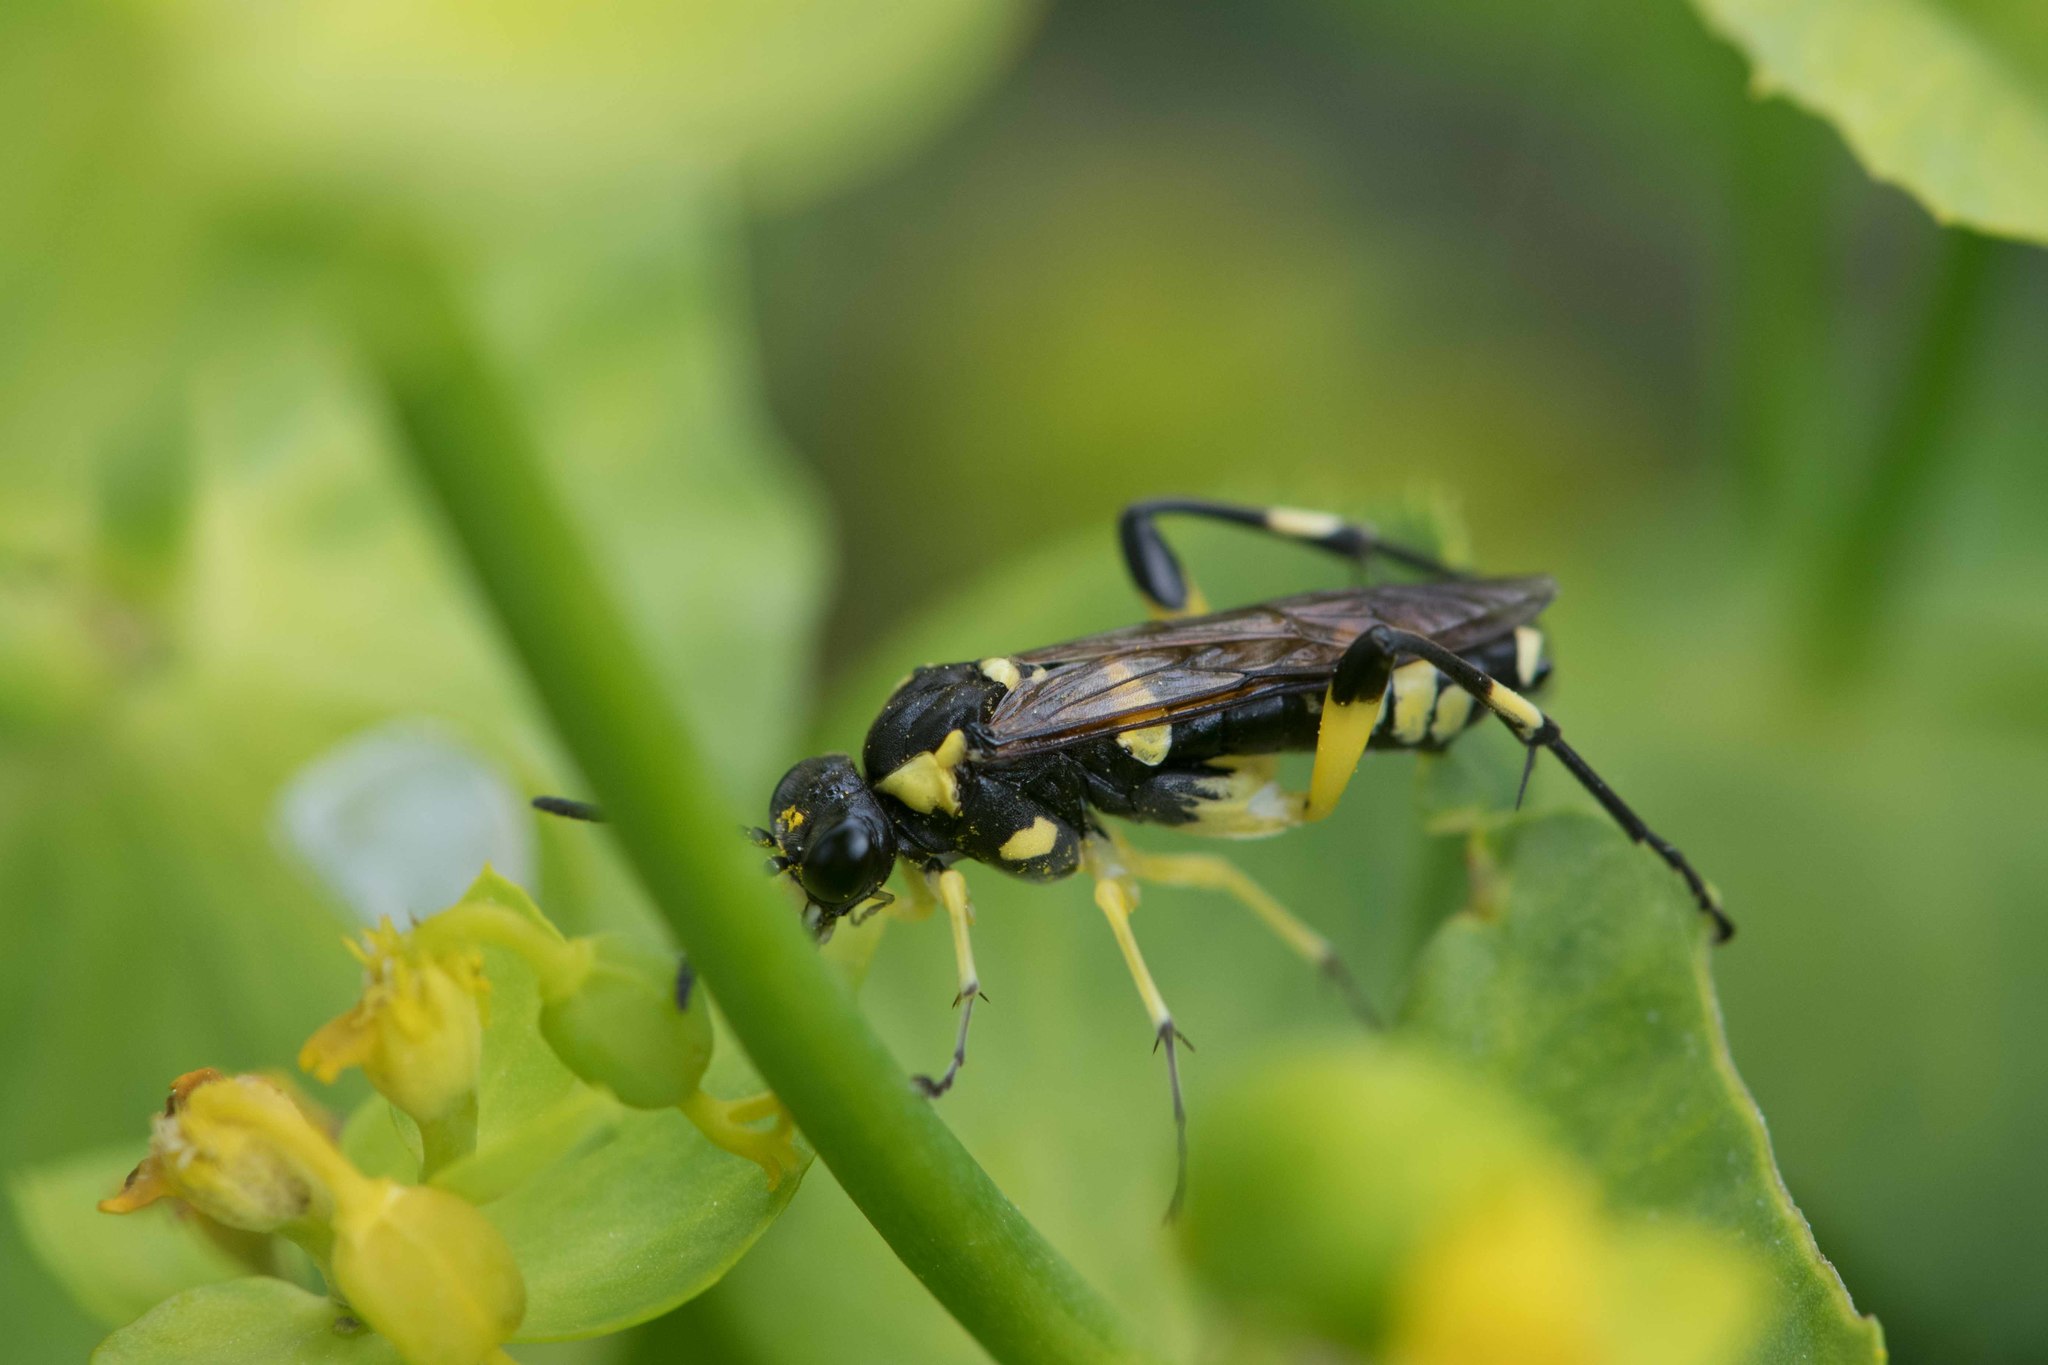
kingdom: Animalia
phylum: Arthropoda
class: Insecta
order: Hymenoptera
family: Tenthredinidae
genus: Macrophya
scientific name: Macrophya montana
